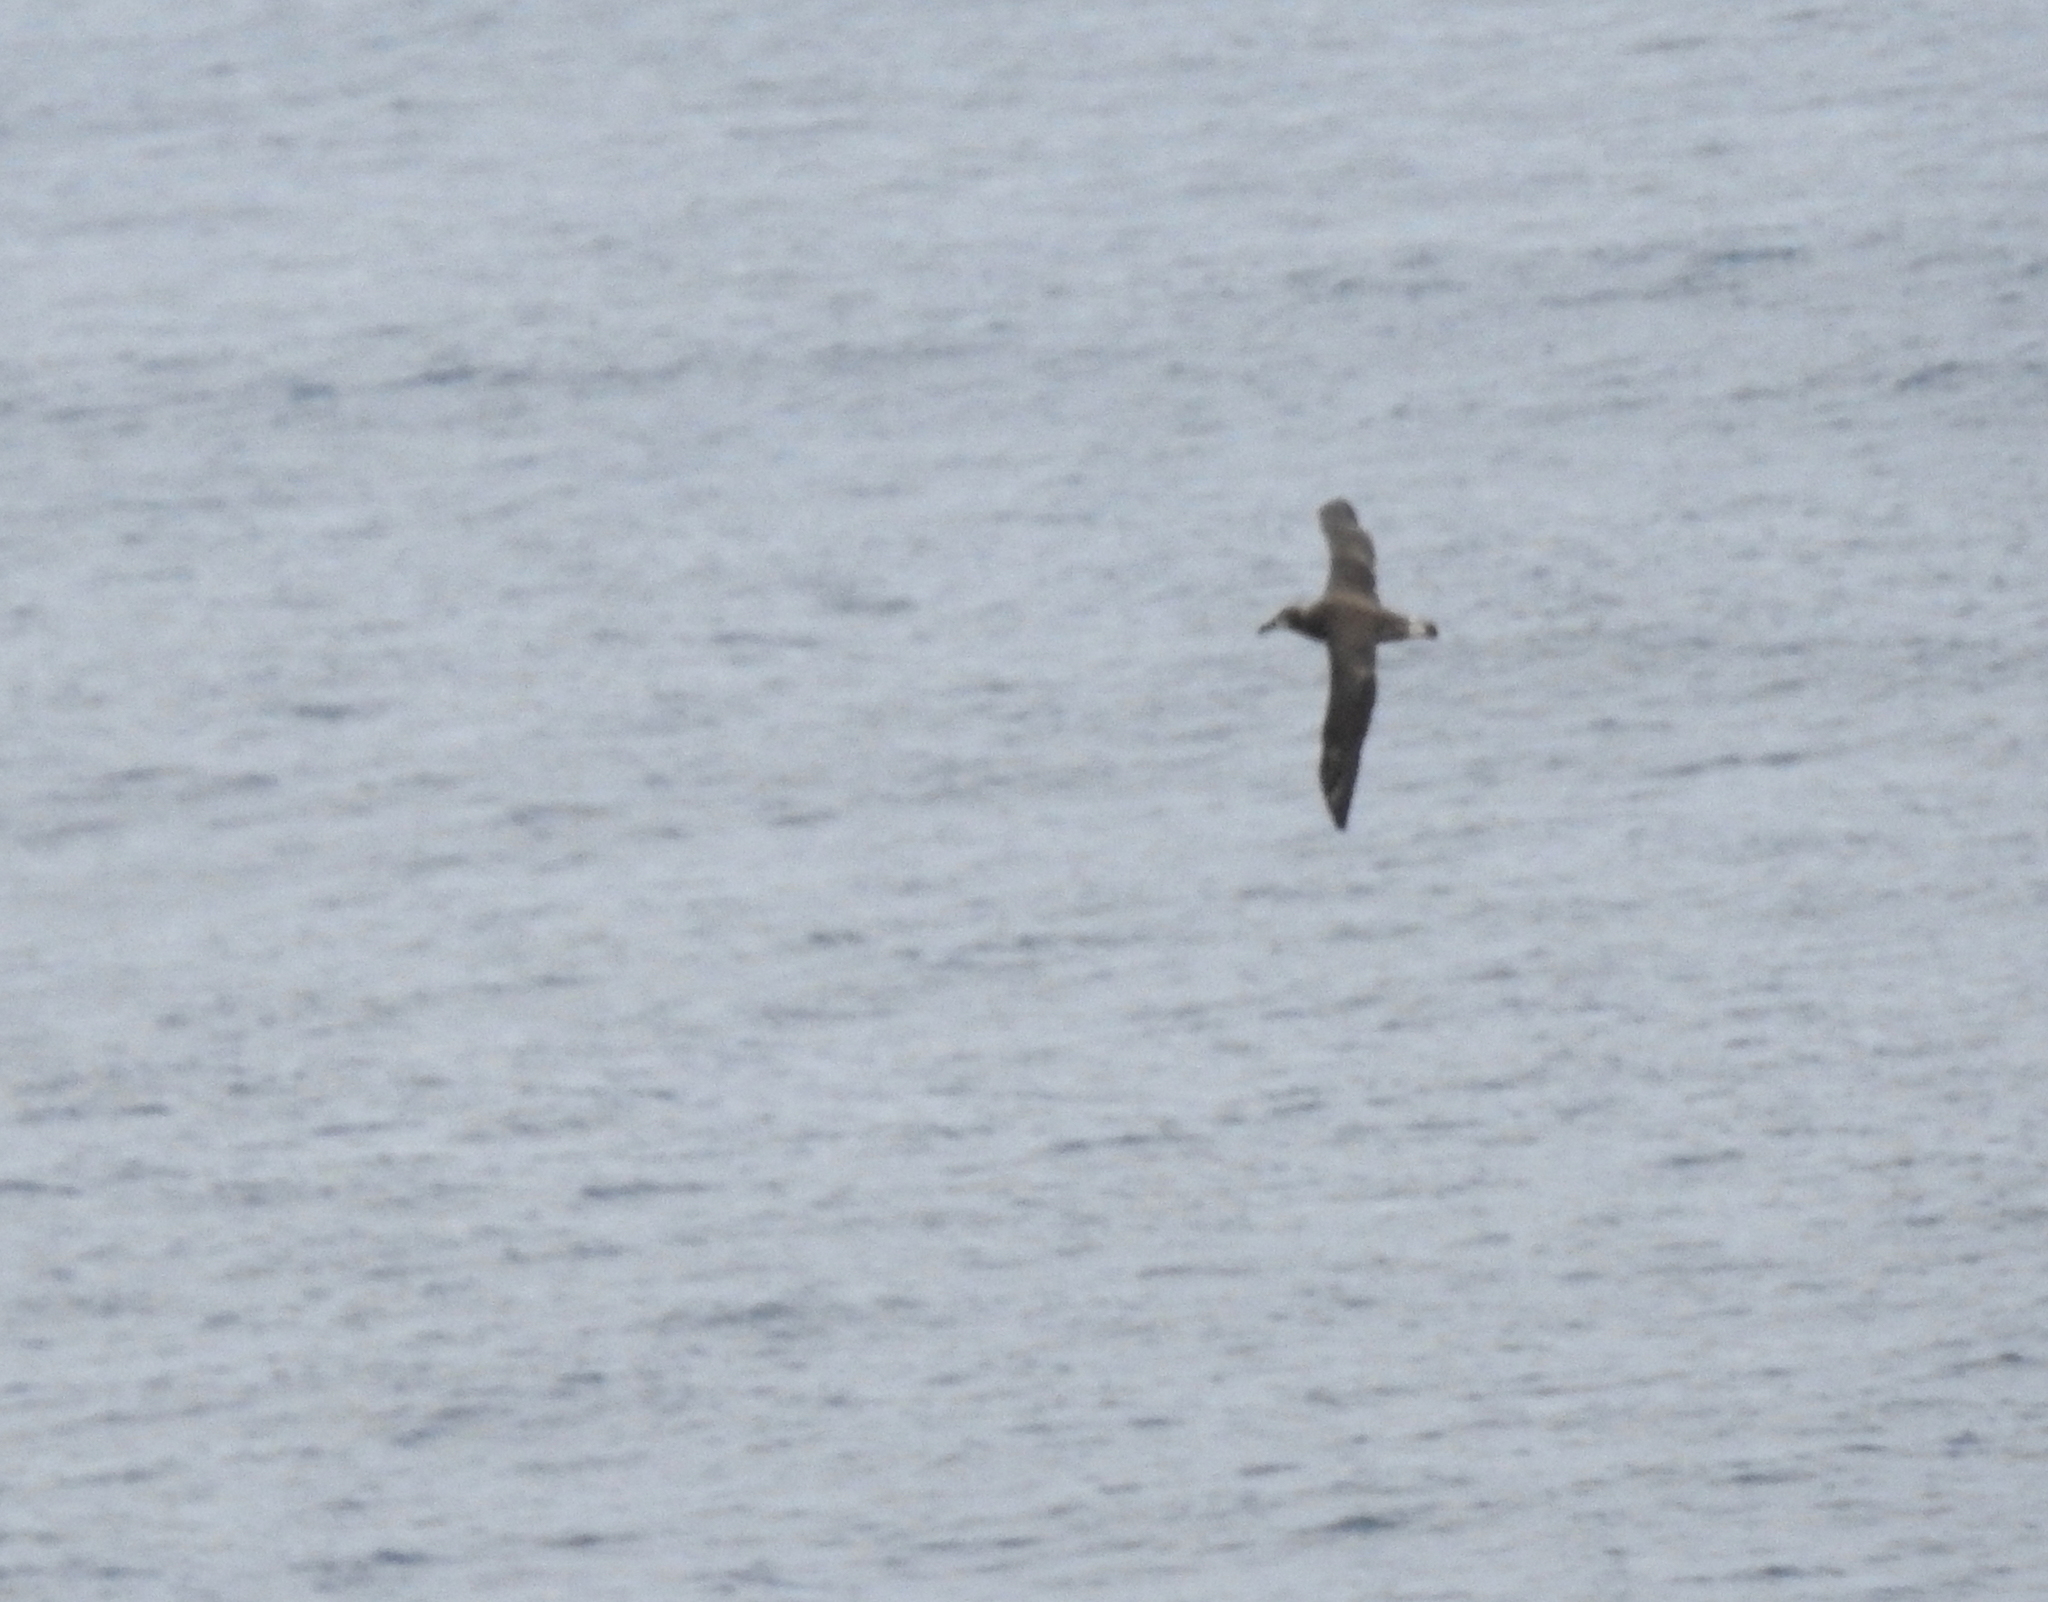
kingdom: Animalia
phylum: Chordata
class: Aves
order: Procellariiformes
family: Diomedeidae
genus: Phoebastria
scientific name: Phoebastria nigripes
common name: Black-footed albatross
